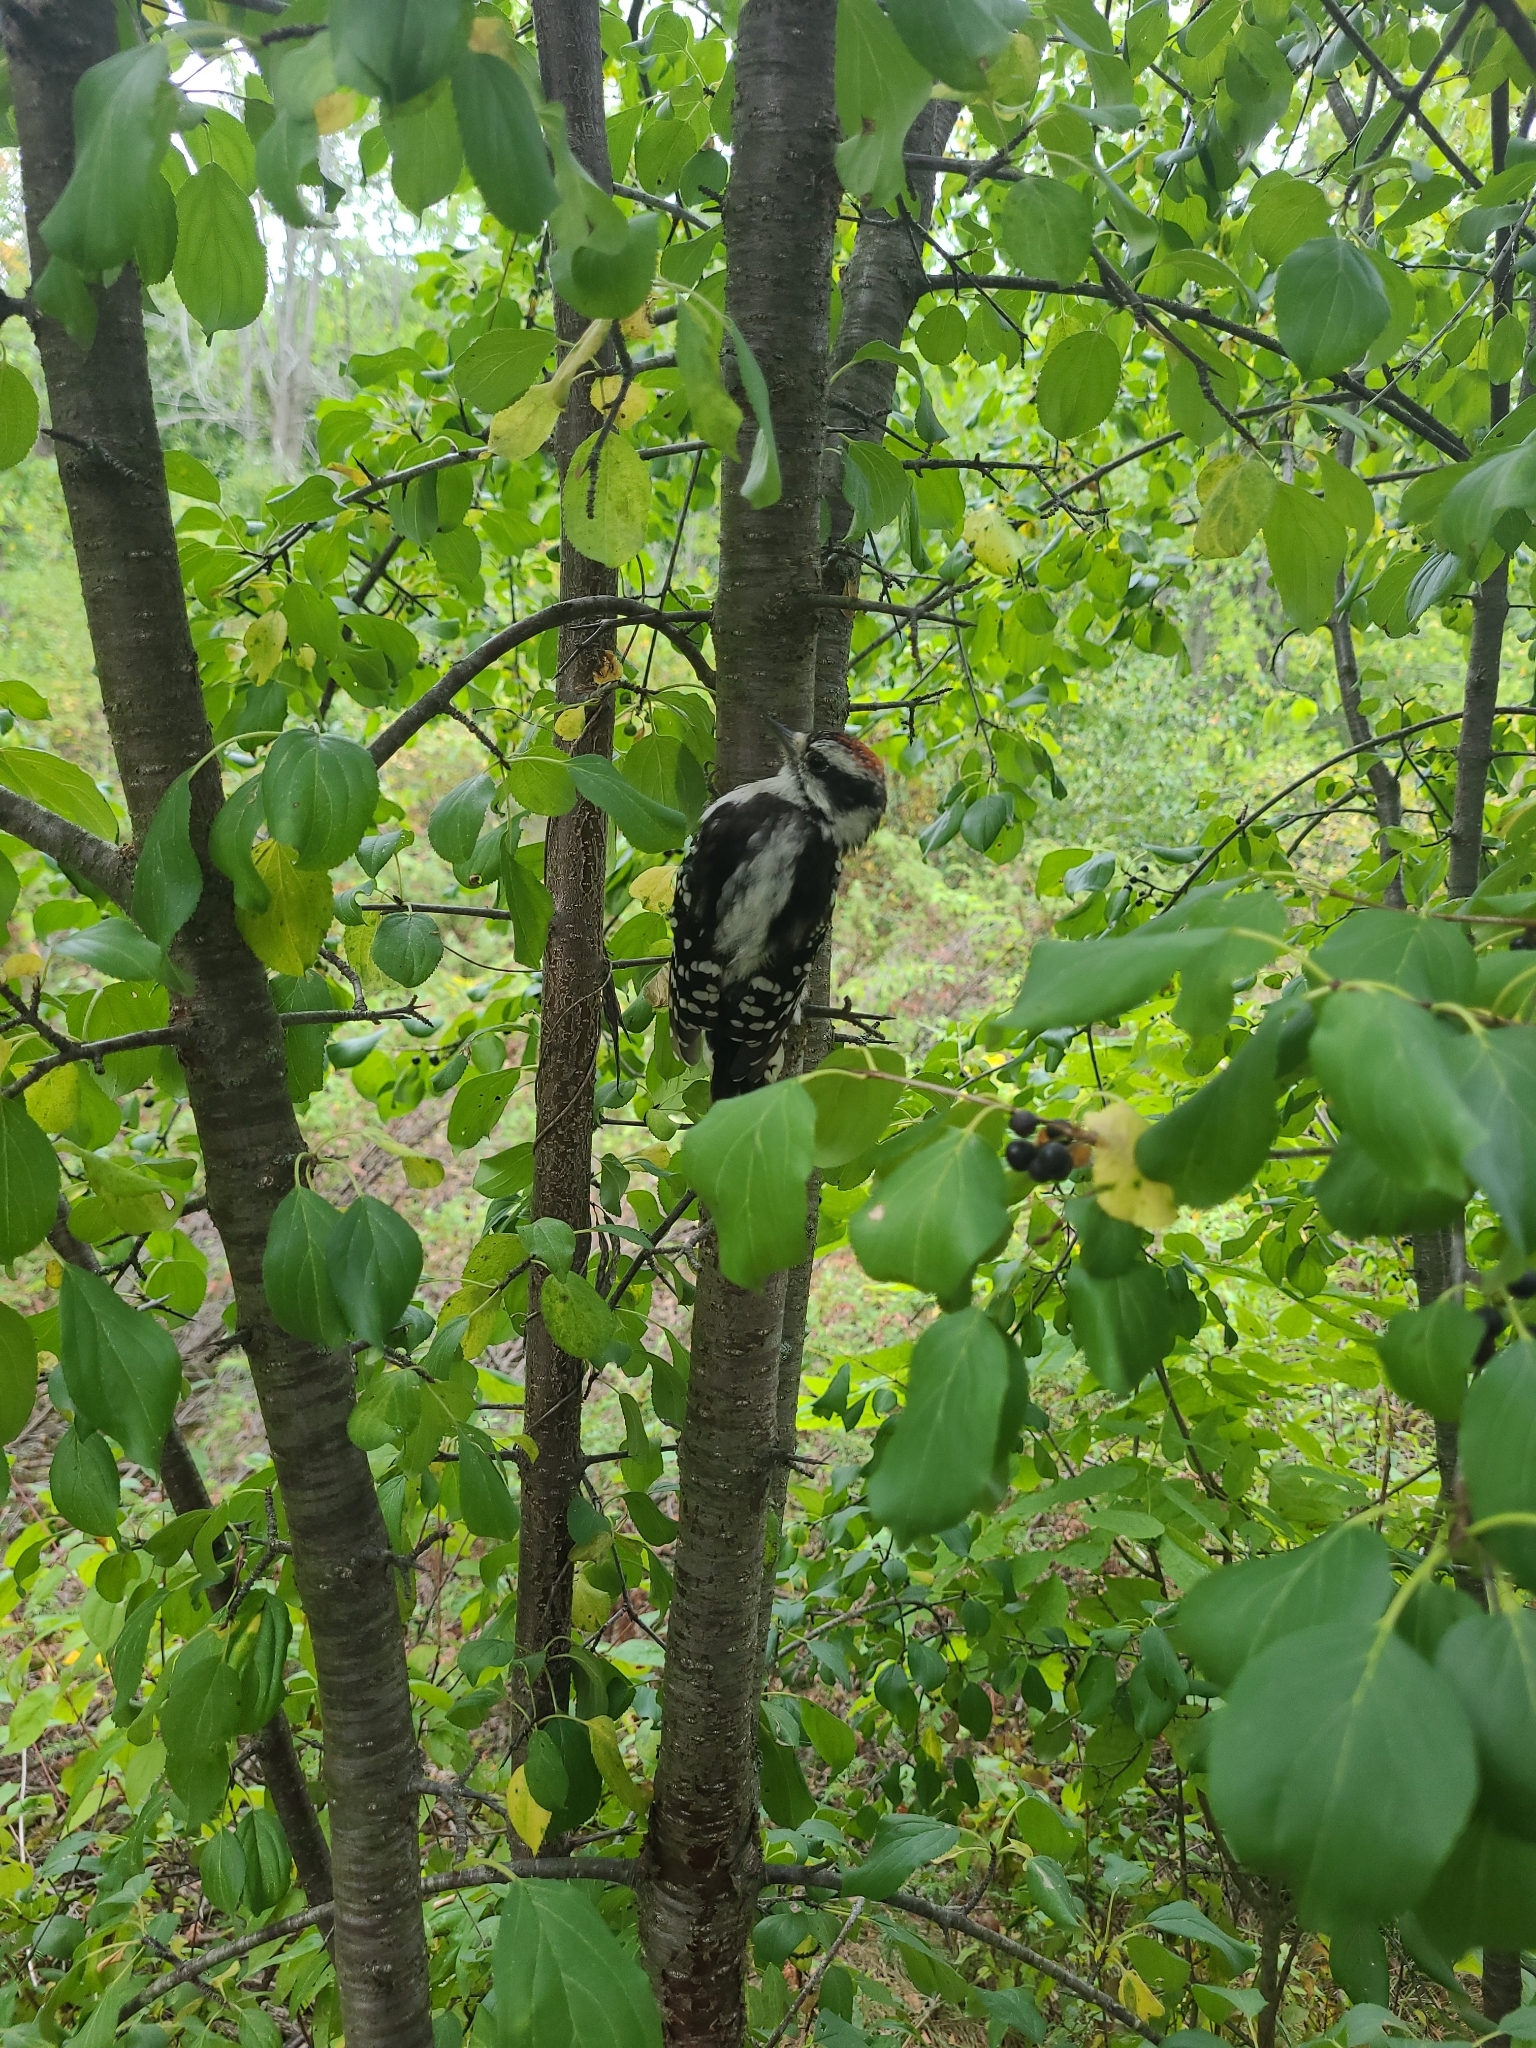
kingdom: Animalia
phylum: Chordata
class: Aves
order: Piciformes
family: Picidae
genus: Dryobates
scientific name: Dryobates pubescens
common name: Downy woodpecker
